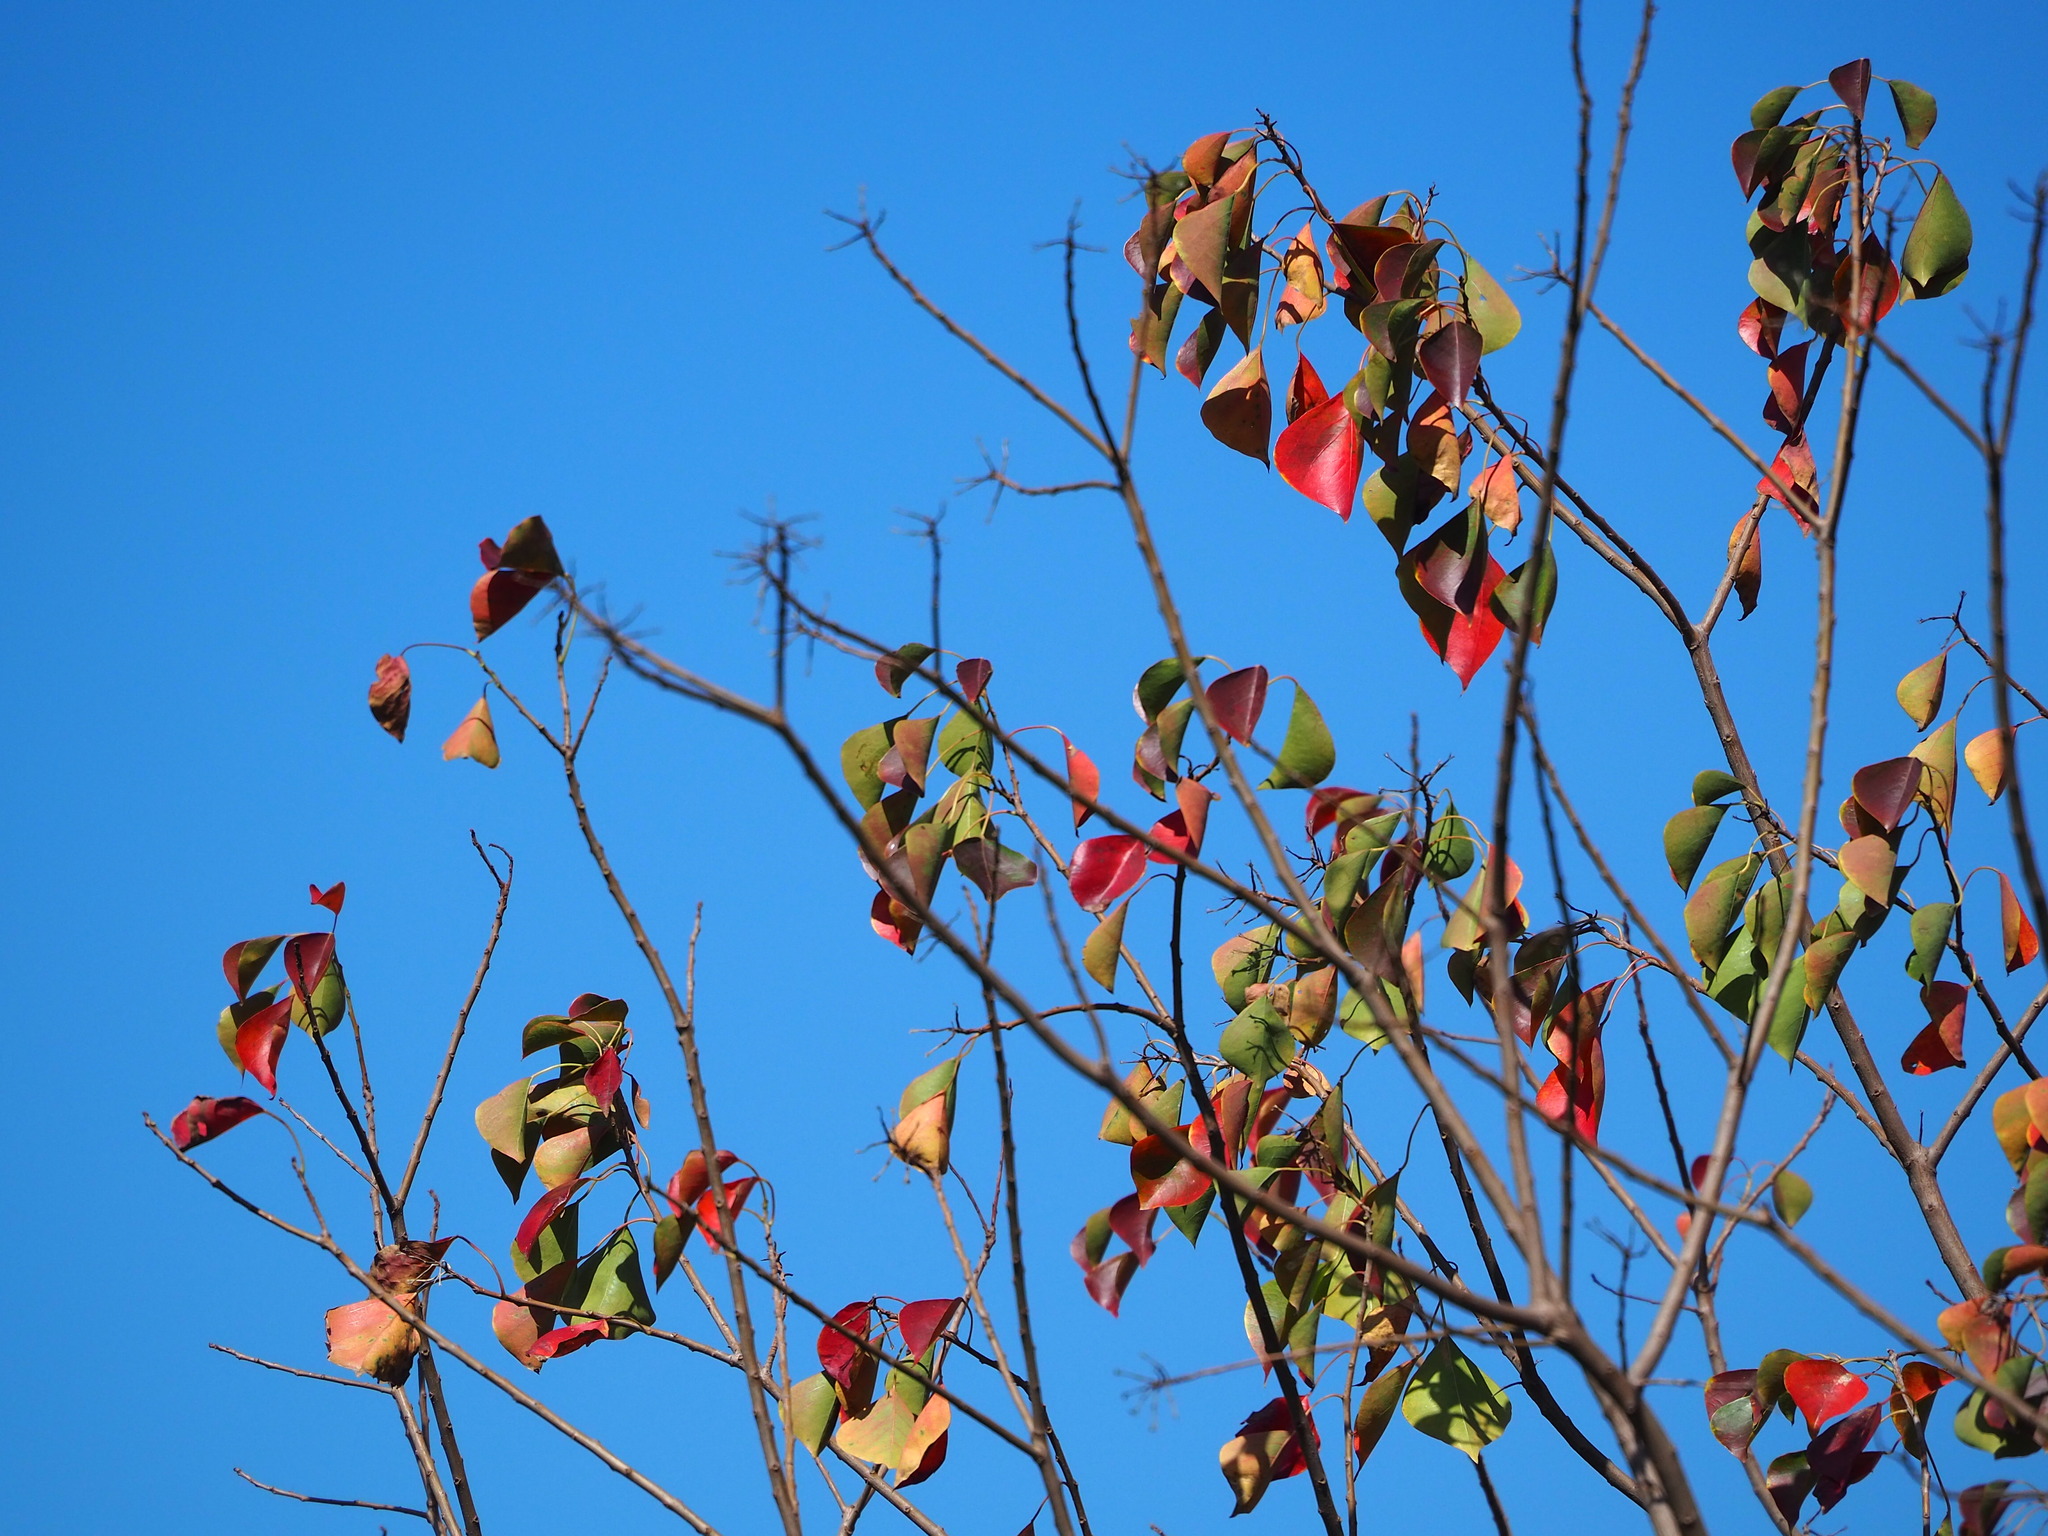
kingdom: Plantae
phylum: Tracheophyta
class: Magnoliopsida
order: Malpighiales
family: Euphorbiaceae
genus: Triadica
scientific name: Triadica sebifera
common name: Chinese tallow
